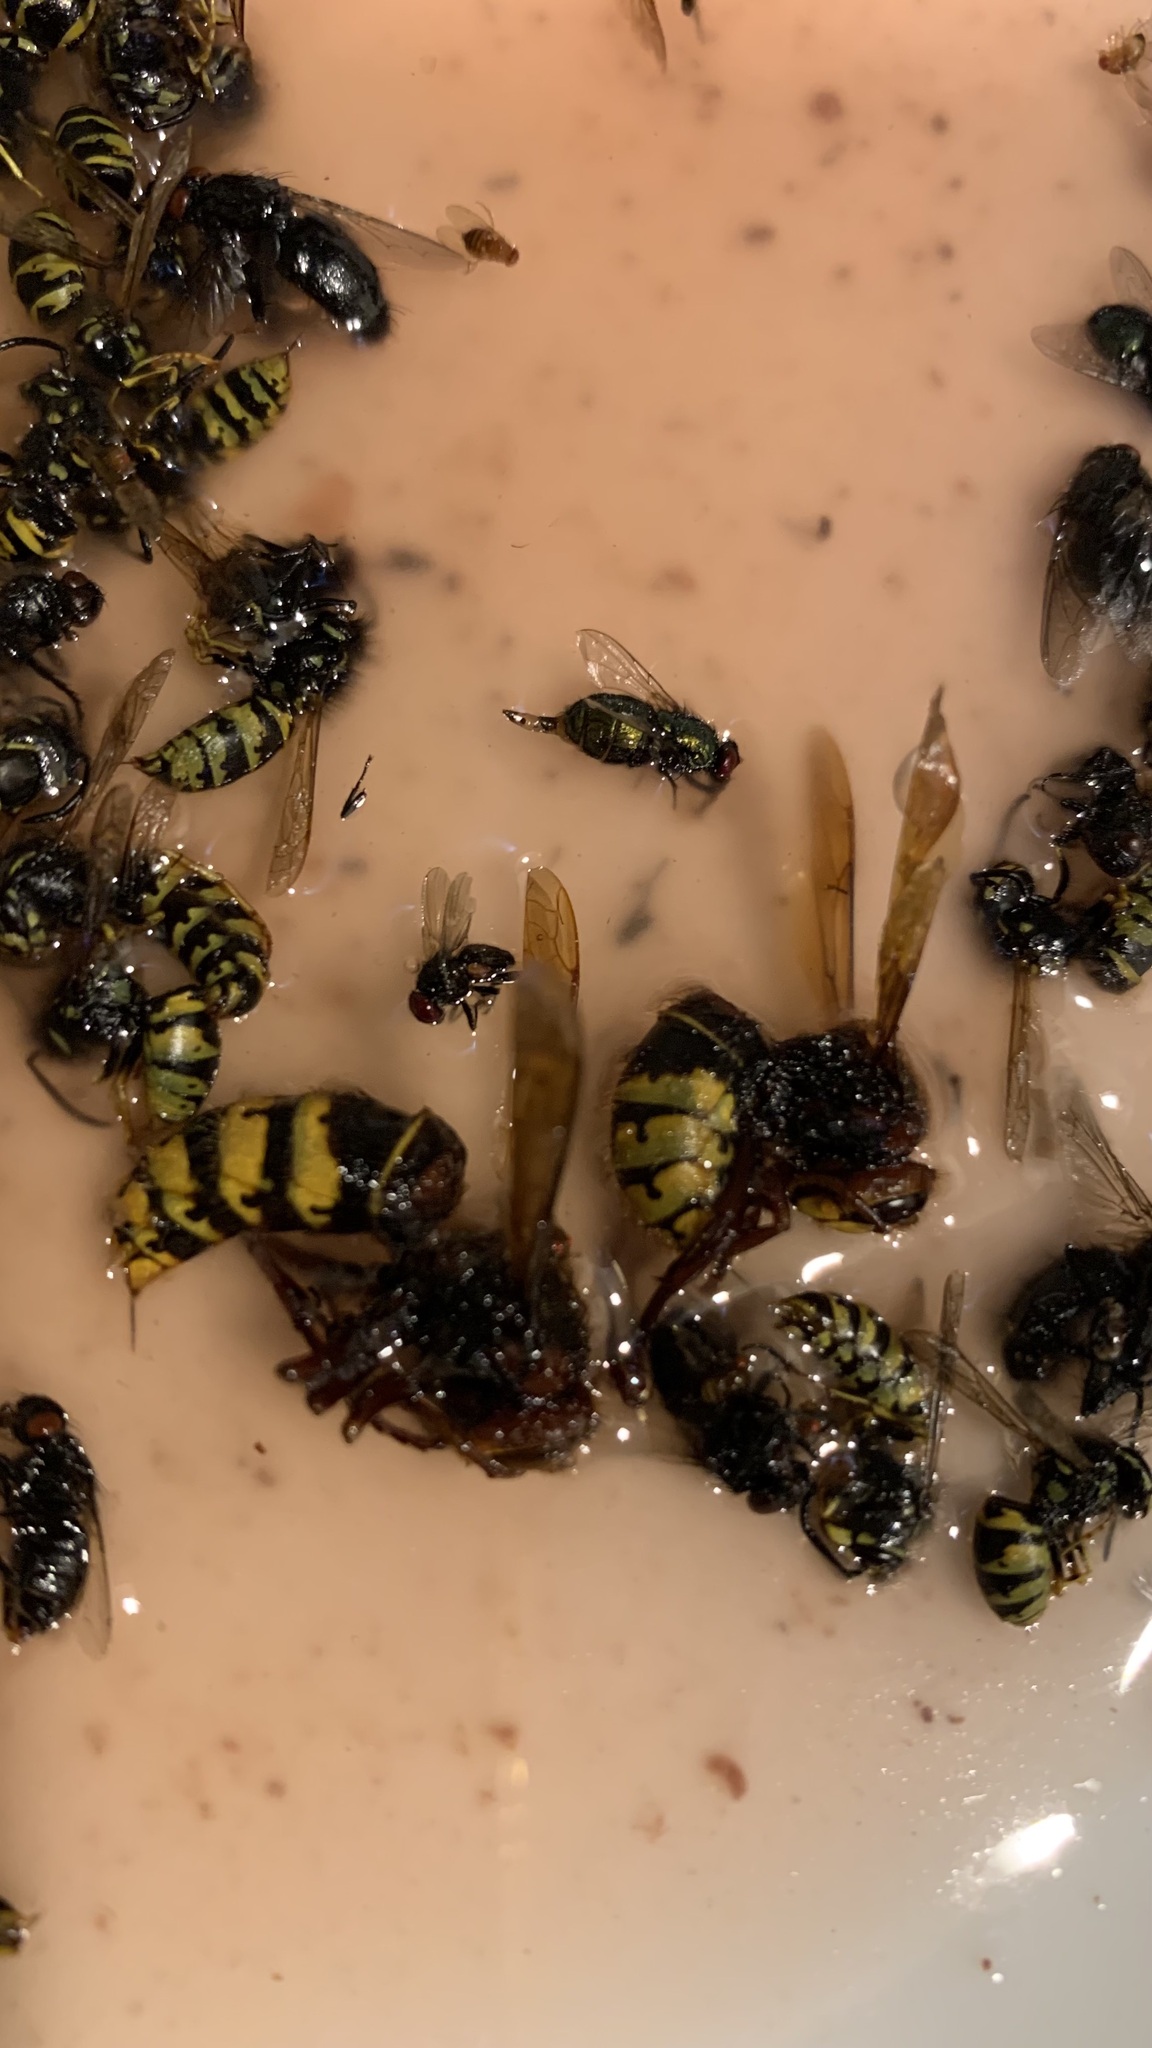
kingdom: Animalia
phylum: Arthropoda
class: Insecta
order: Hymenoptera
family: Vespidae
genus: Vespa
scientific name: Vespa crabro
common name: Hornet
